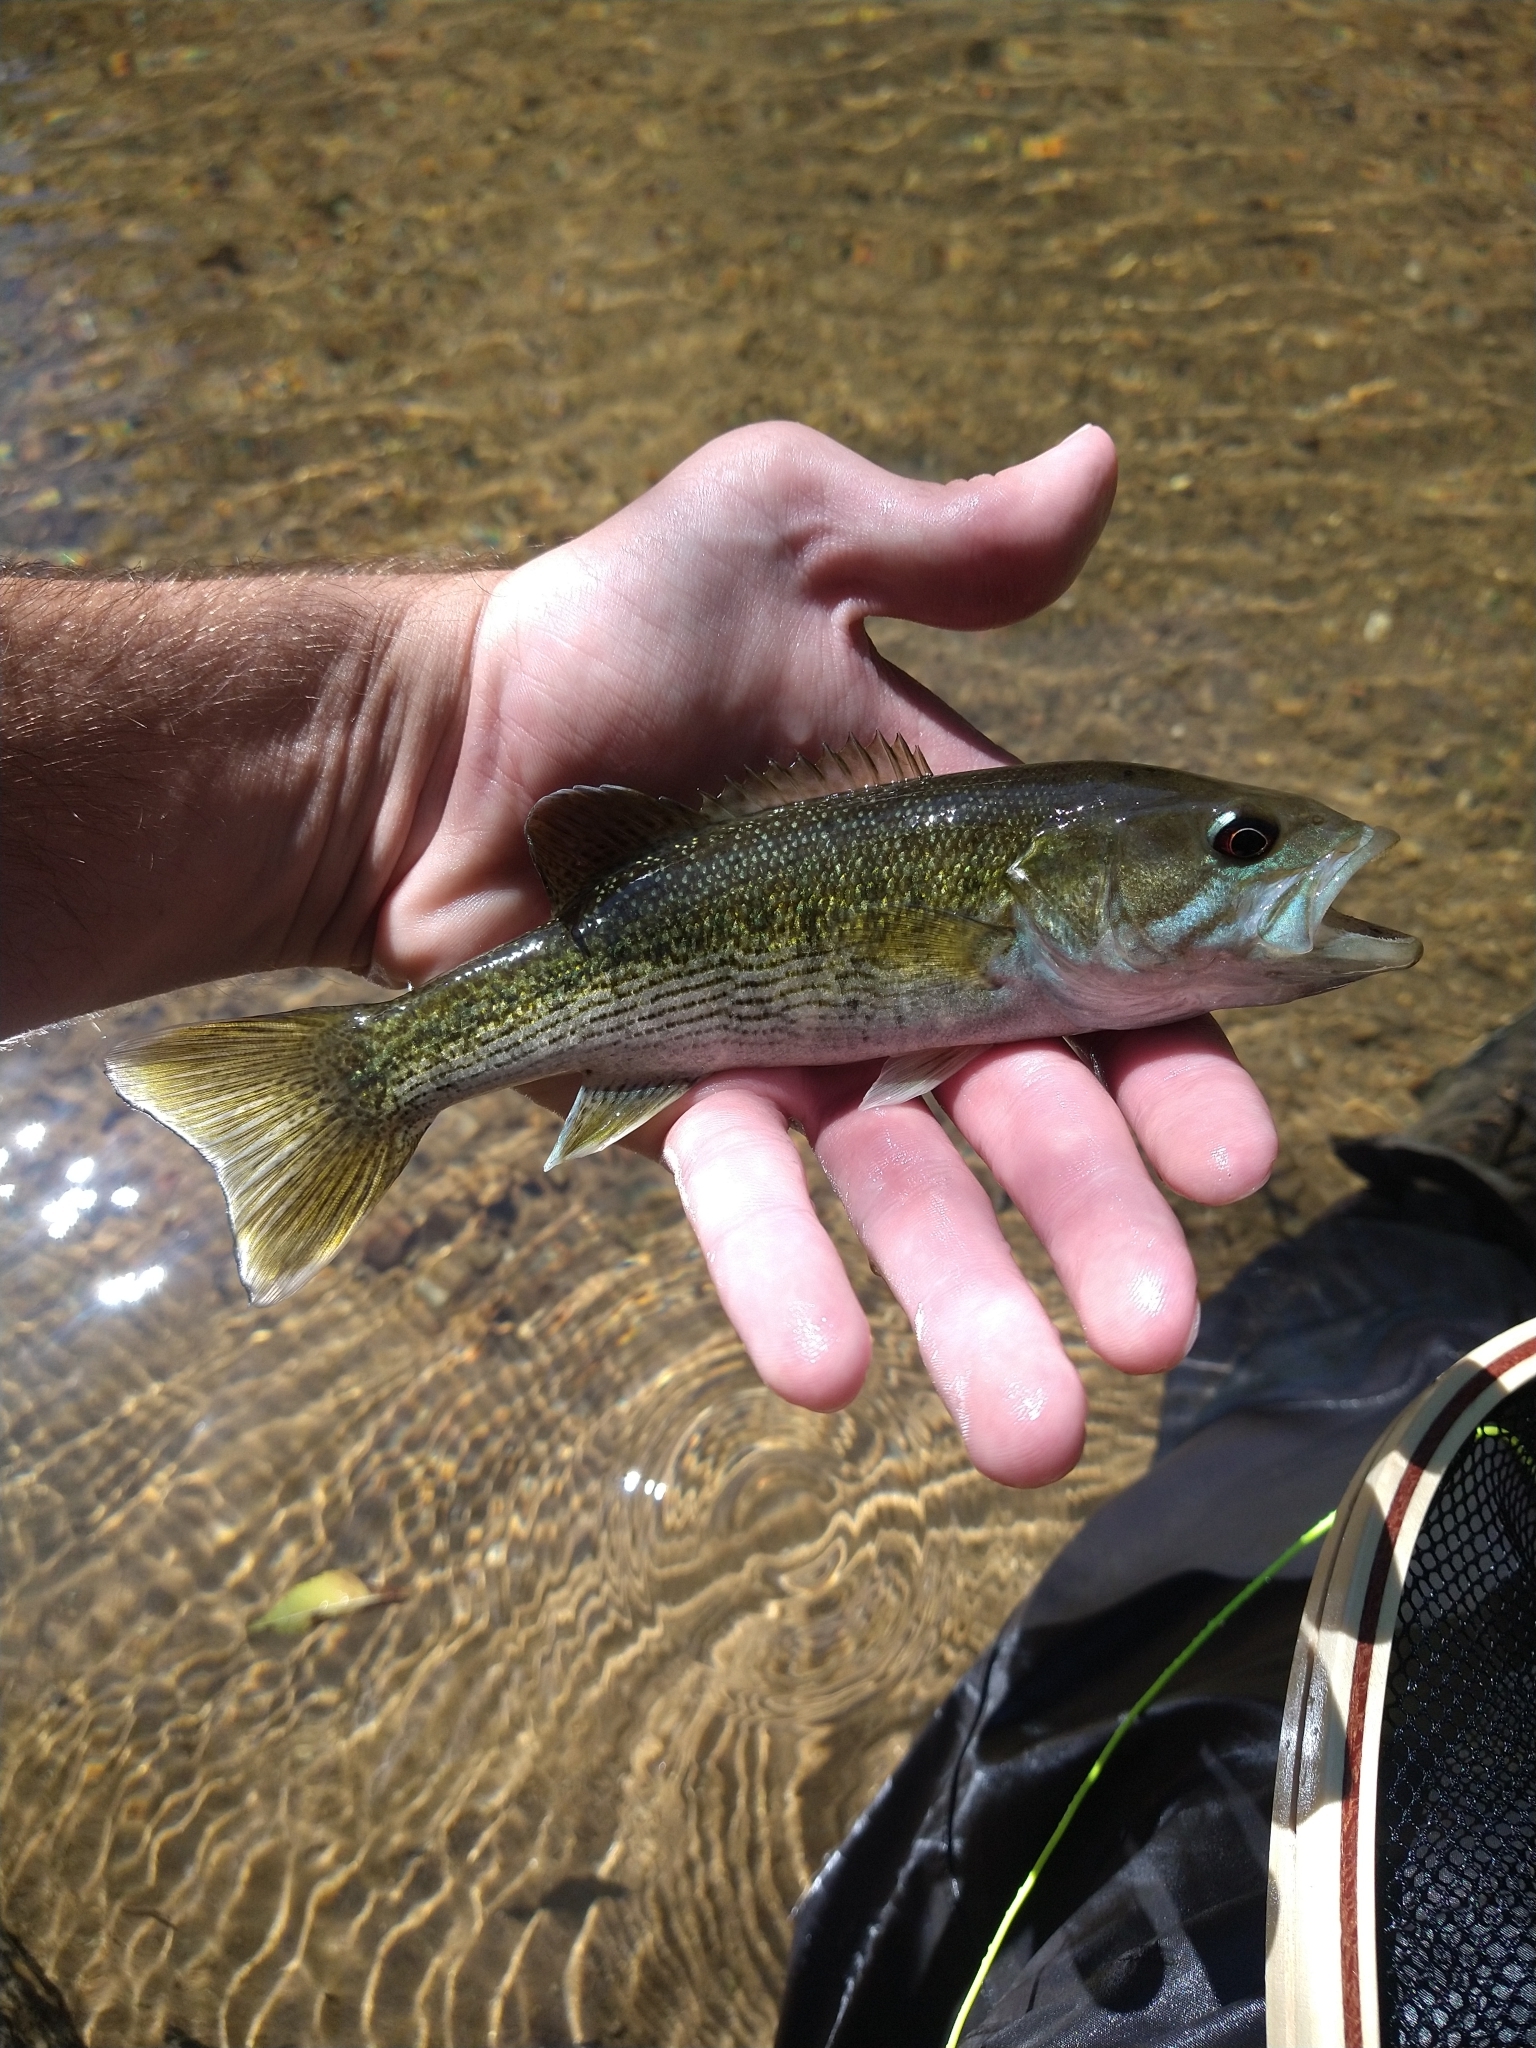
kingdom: Animalia
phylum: Chordata
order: Perciformes
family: Centrarchidae
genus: Micropterus
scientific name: Micropterus warriorensis
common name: Warrior bass
